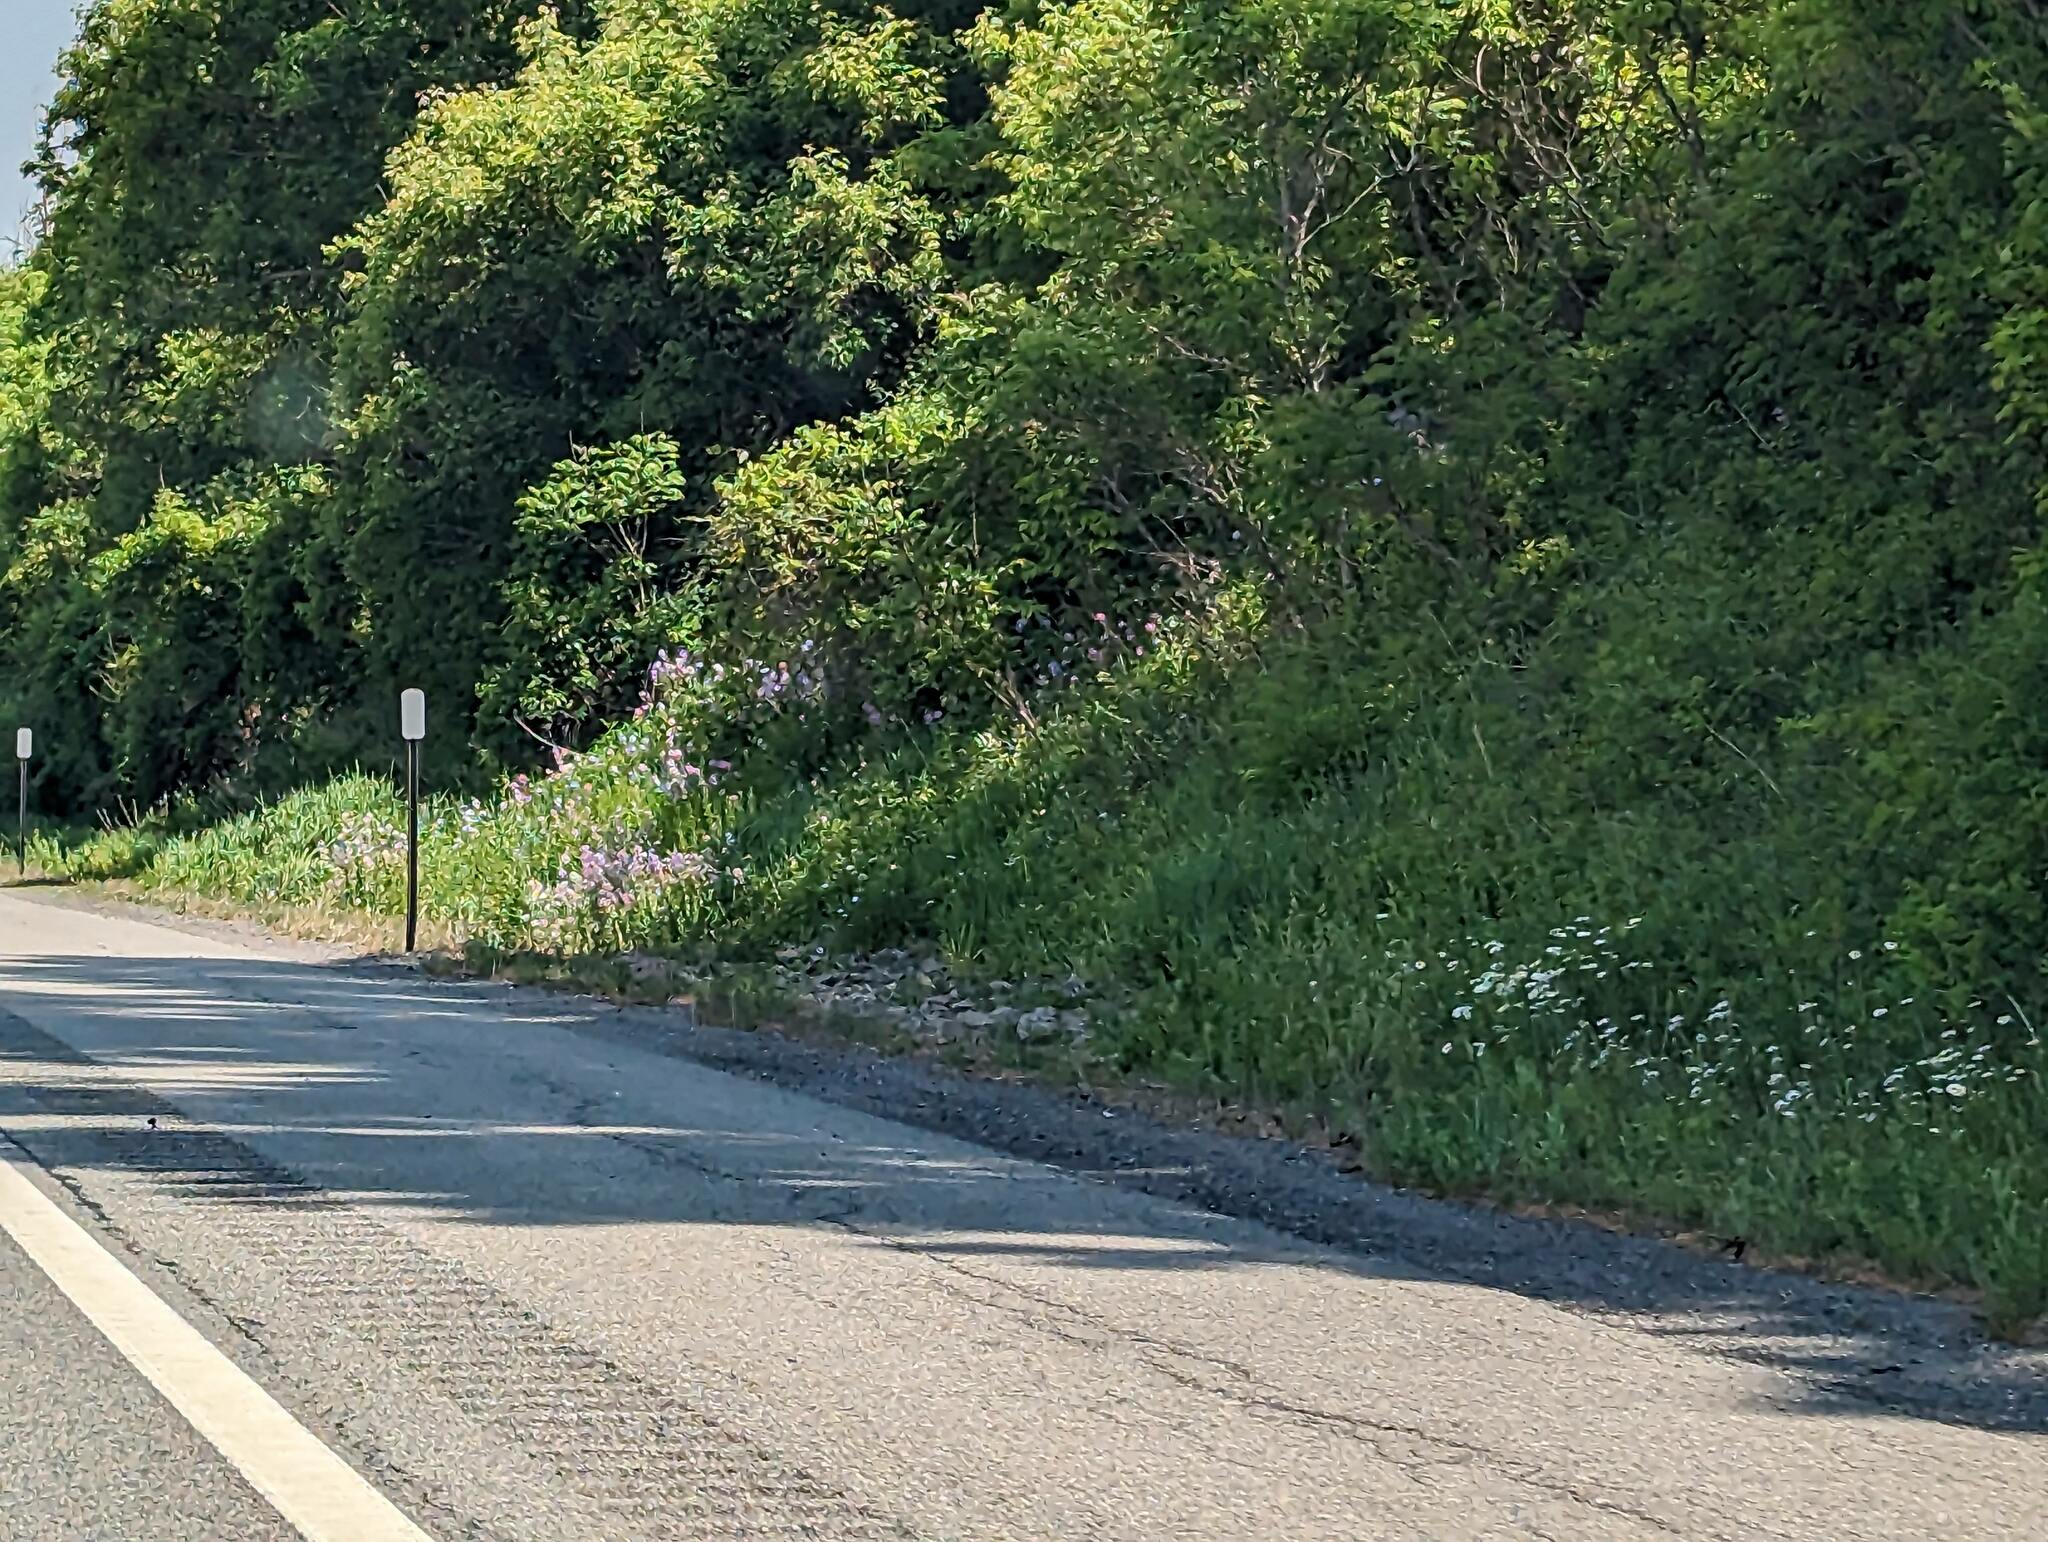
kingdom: Plantae
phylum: Tracheophyta
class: Magnoliopsida
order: Brassicales
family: Brassicaceae
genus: Hesperis
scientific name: Hesperis matronalis
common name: Dame's-violet
